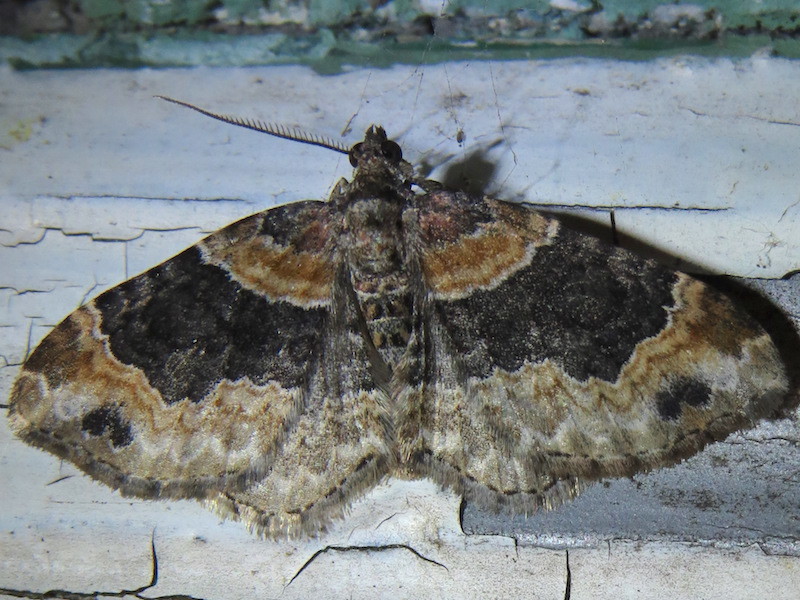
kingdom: Animalia
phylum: Arthropoda
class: Insecta
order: Lepidoptera
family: Geometridae
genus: Xanthorhoe
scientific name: Xanthorhoe ferrugata
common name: Dark-barred twin-spot carpet
